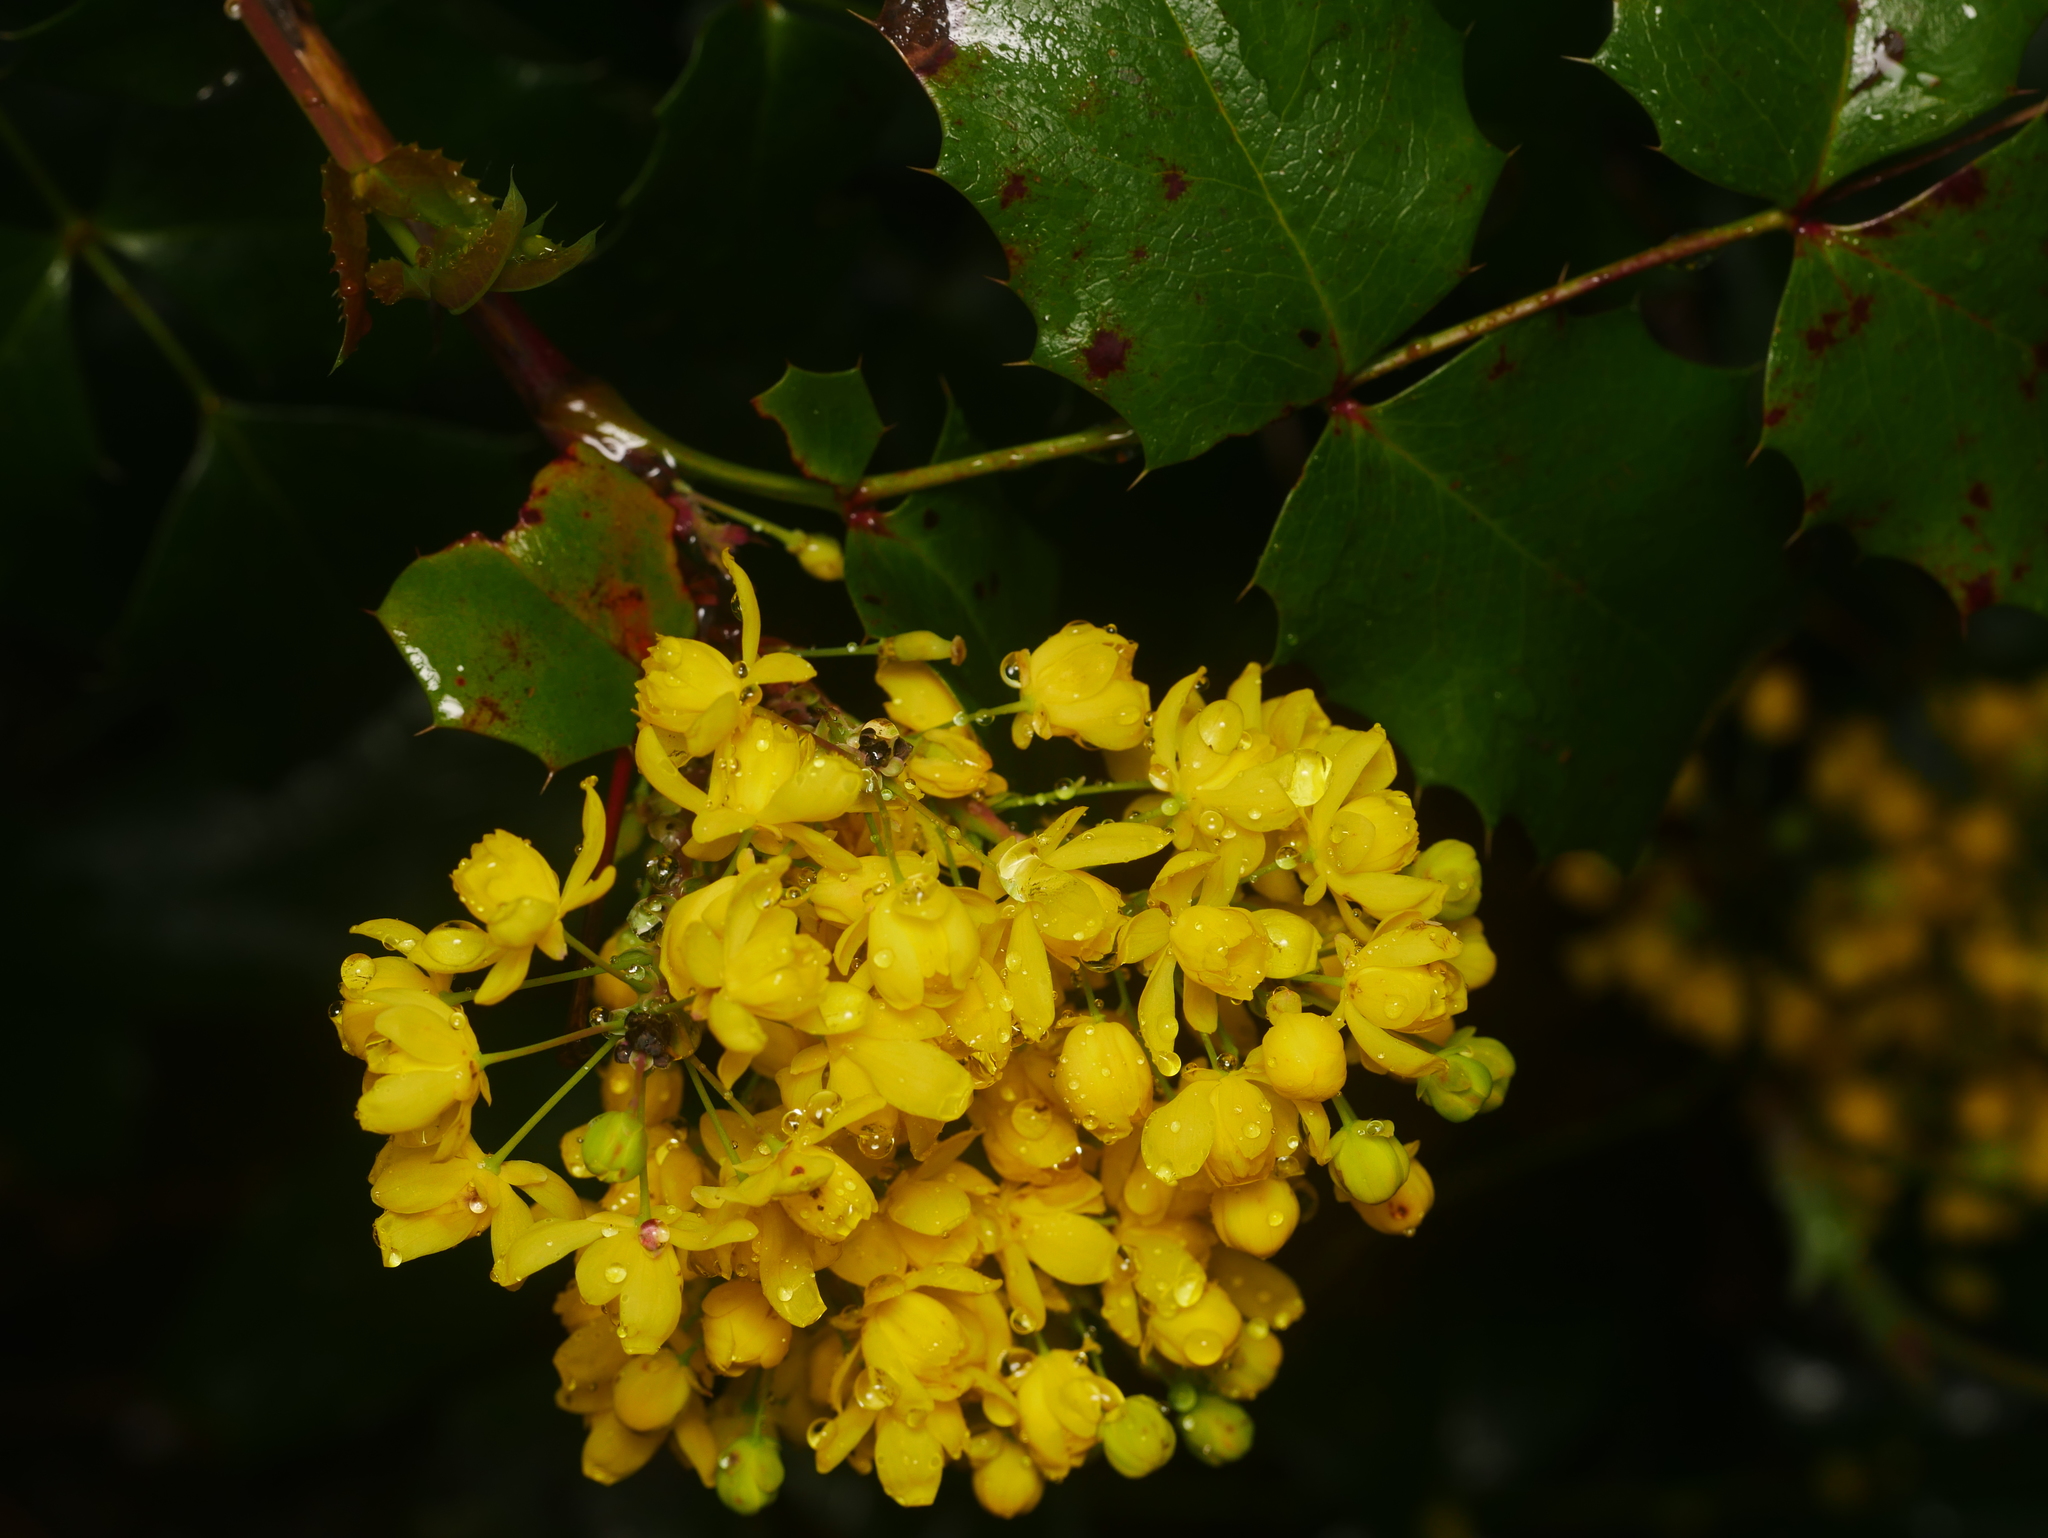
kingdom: Plantae
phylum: Tracheophyta
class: Magnoliopsida
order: Ranunculales
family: Berberidaceae
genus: Mahonia
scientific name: Mahonia aquifolium
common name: Oregon-grape
